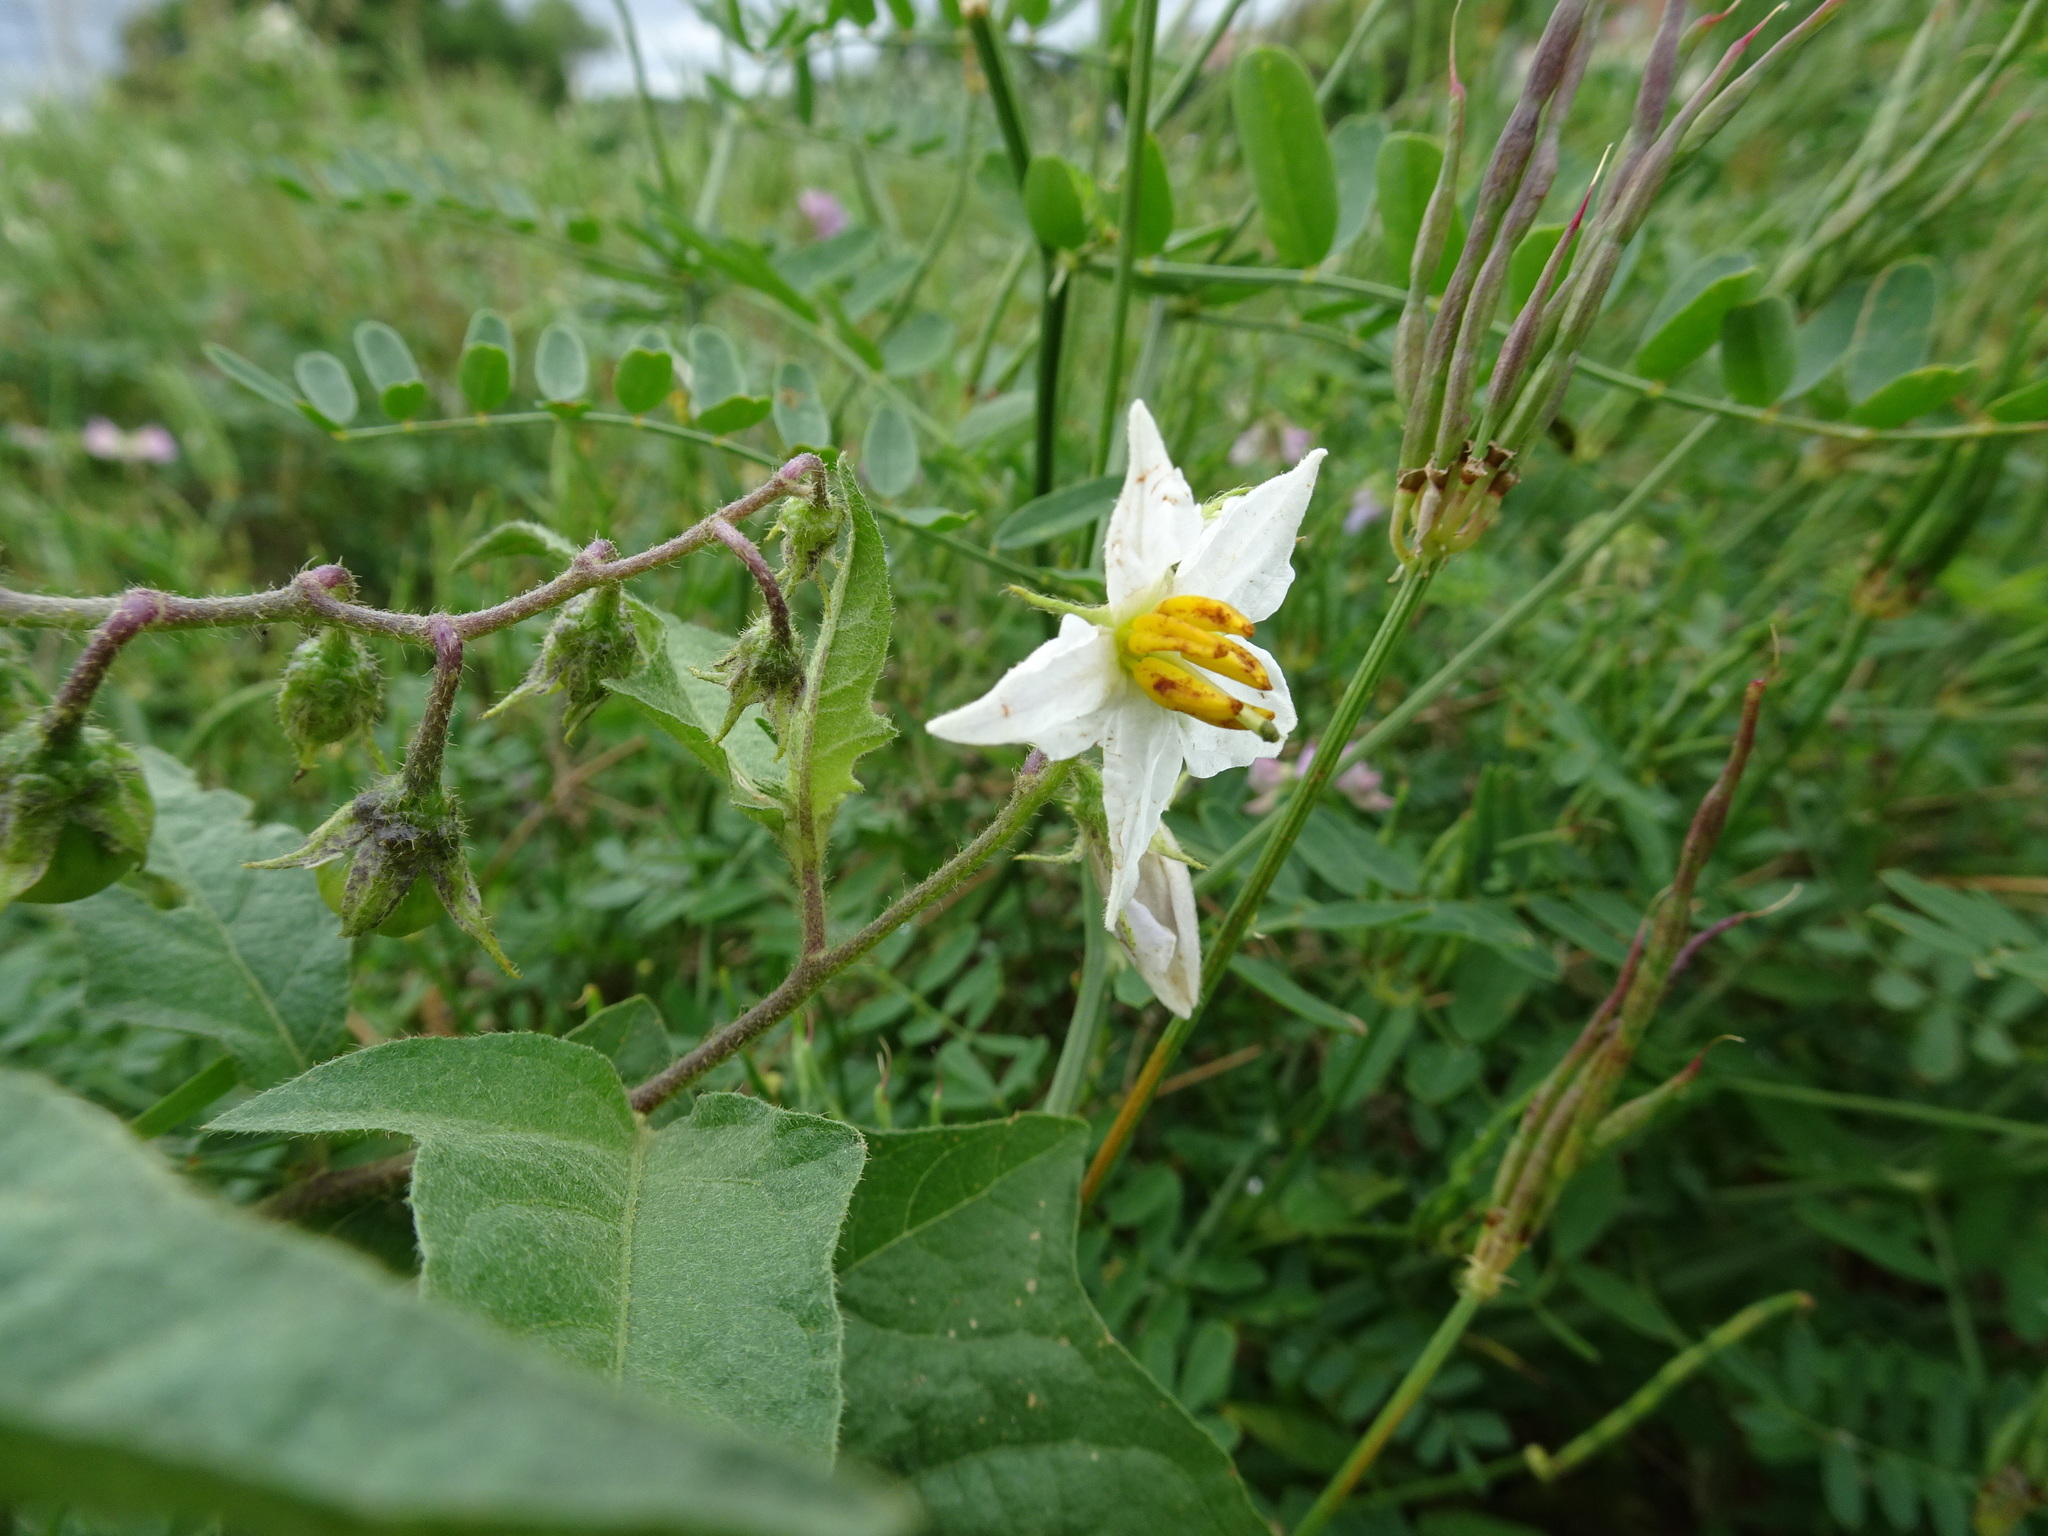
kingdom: Plantae
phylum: Tracheophyta
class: Magnoliopsida
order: Solanales
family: Solanaceae
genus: Solanum
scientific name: Solanum carolinense
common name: Horse-nettle
